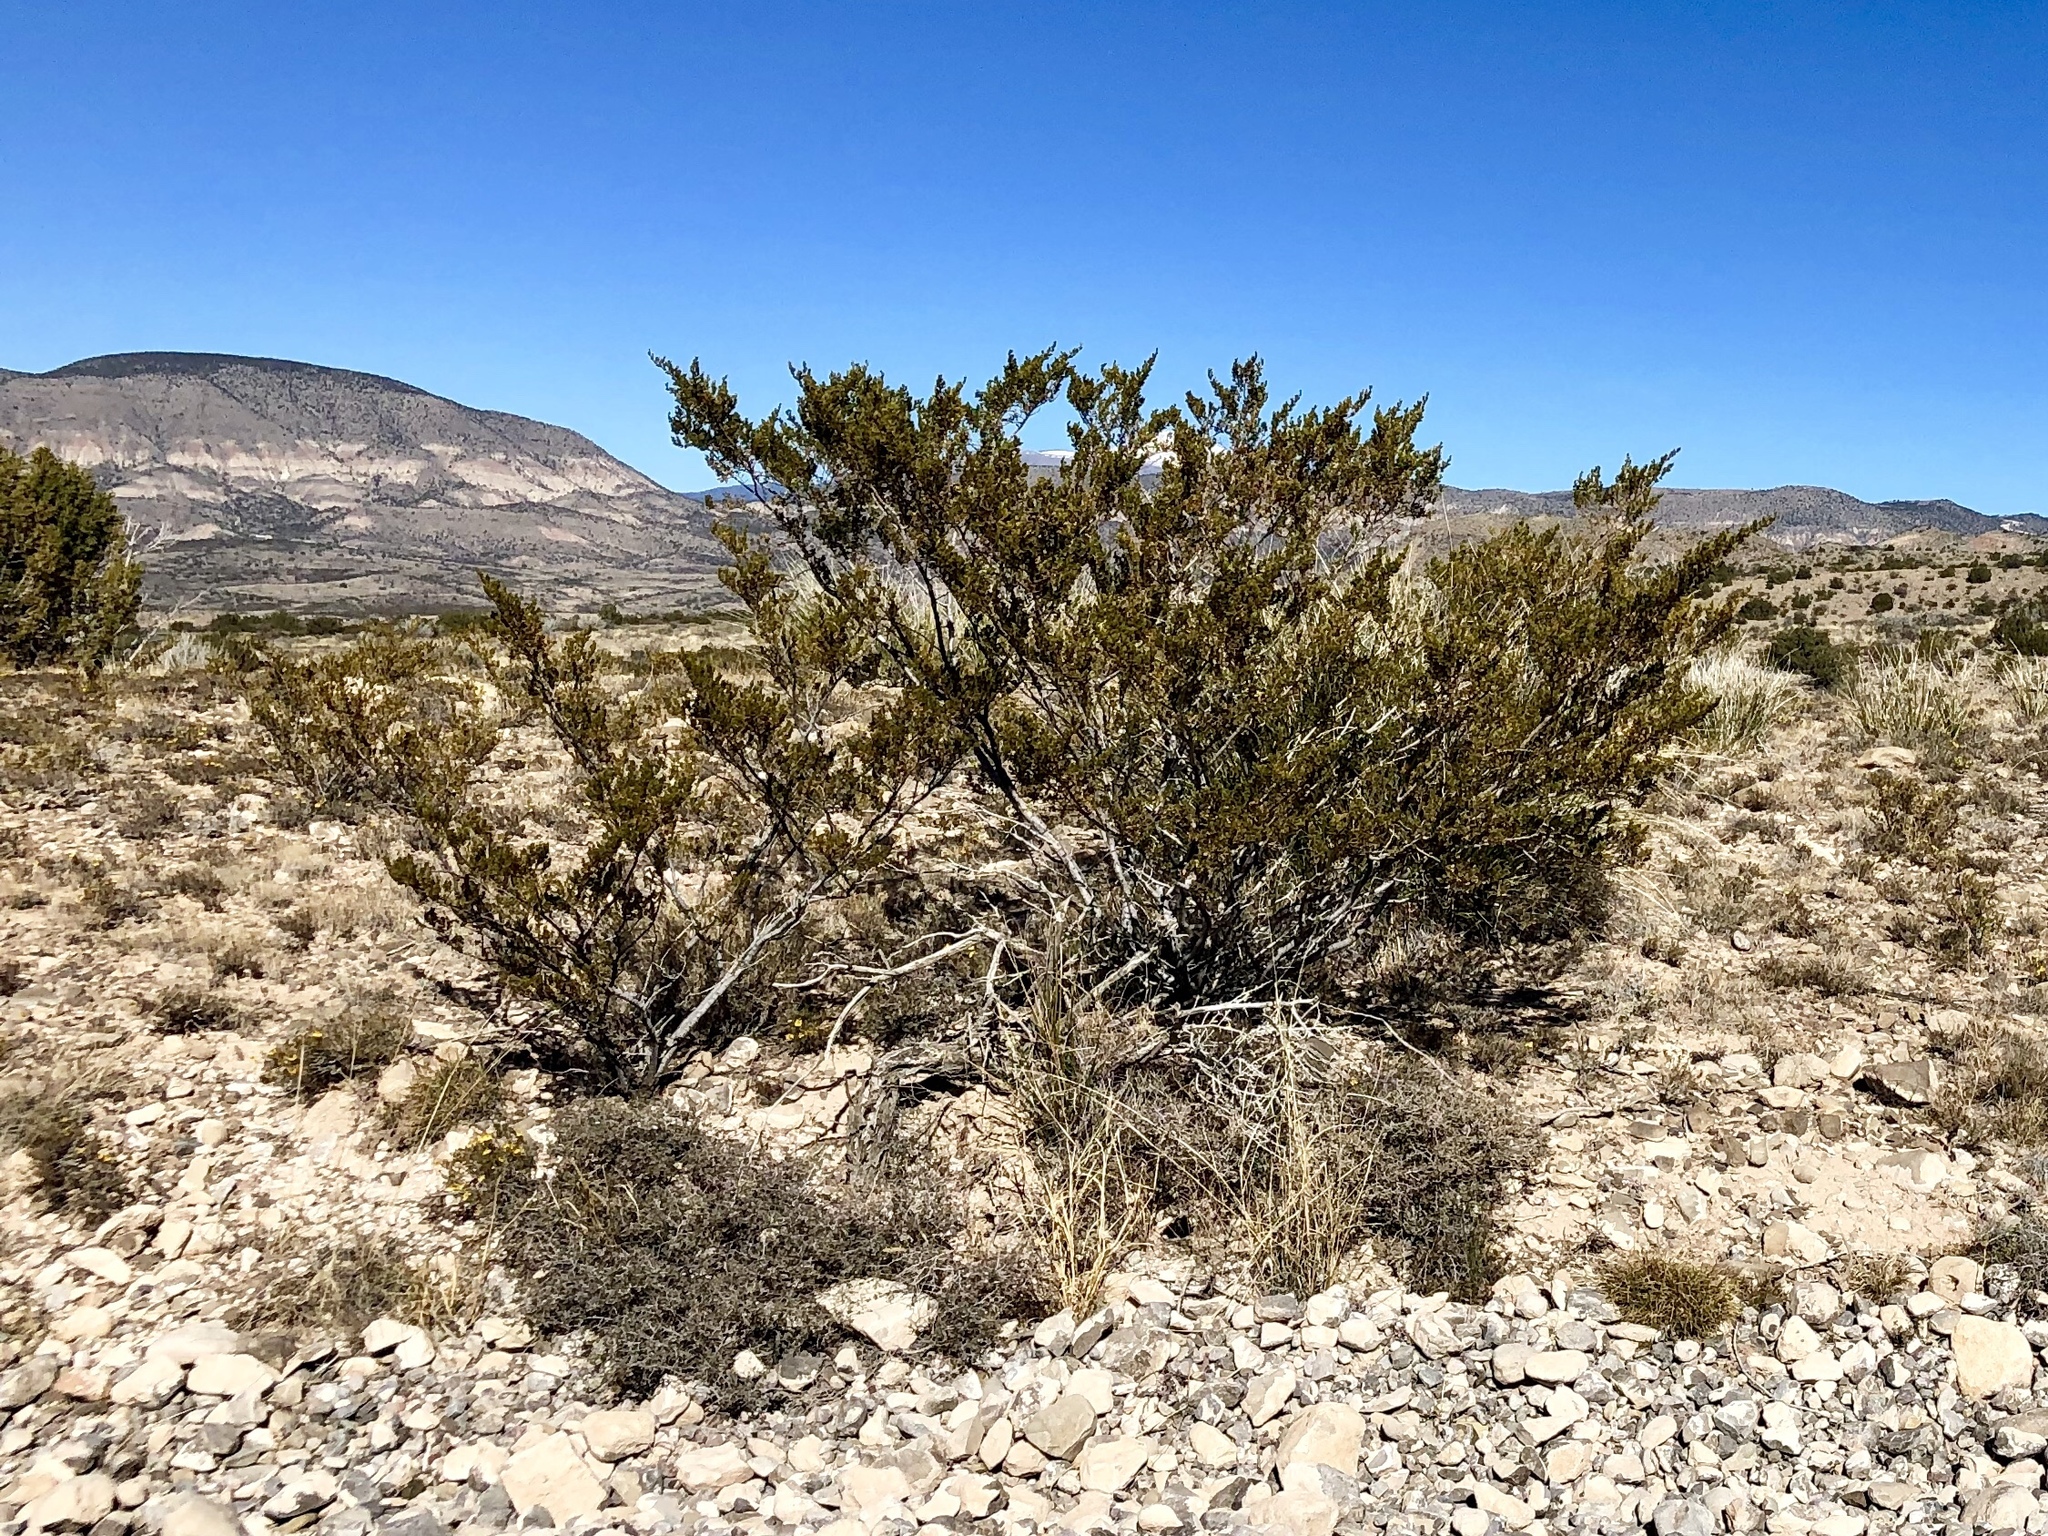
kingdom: Plantae
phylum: Tracheophyta
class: Magnoliopsida
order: Zygophyllales
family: Zygophyllaceae
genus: Larrea
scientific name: Larrea tridentata
